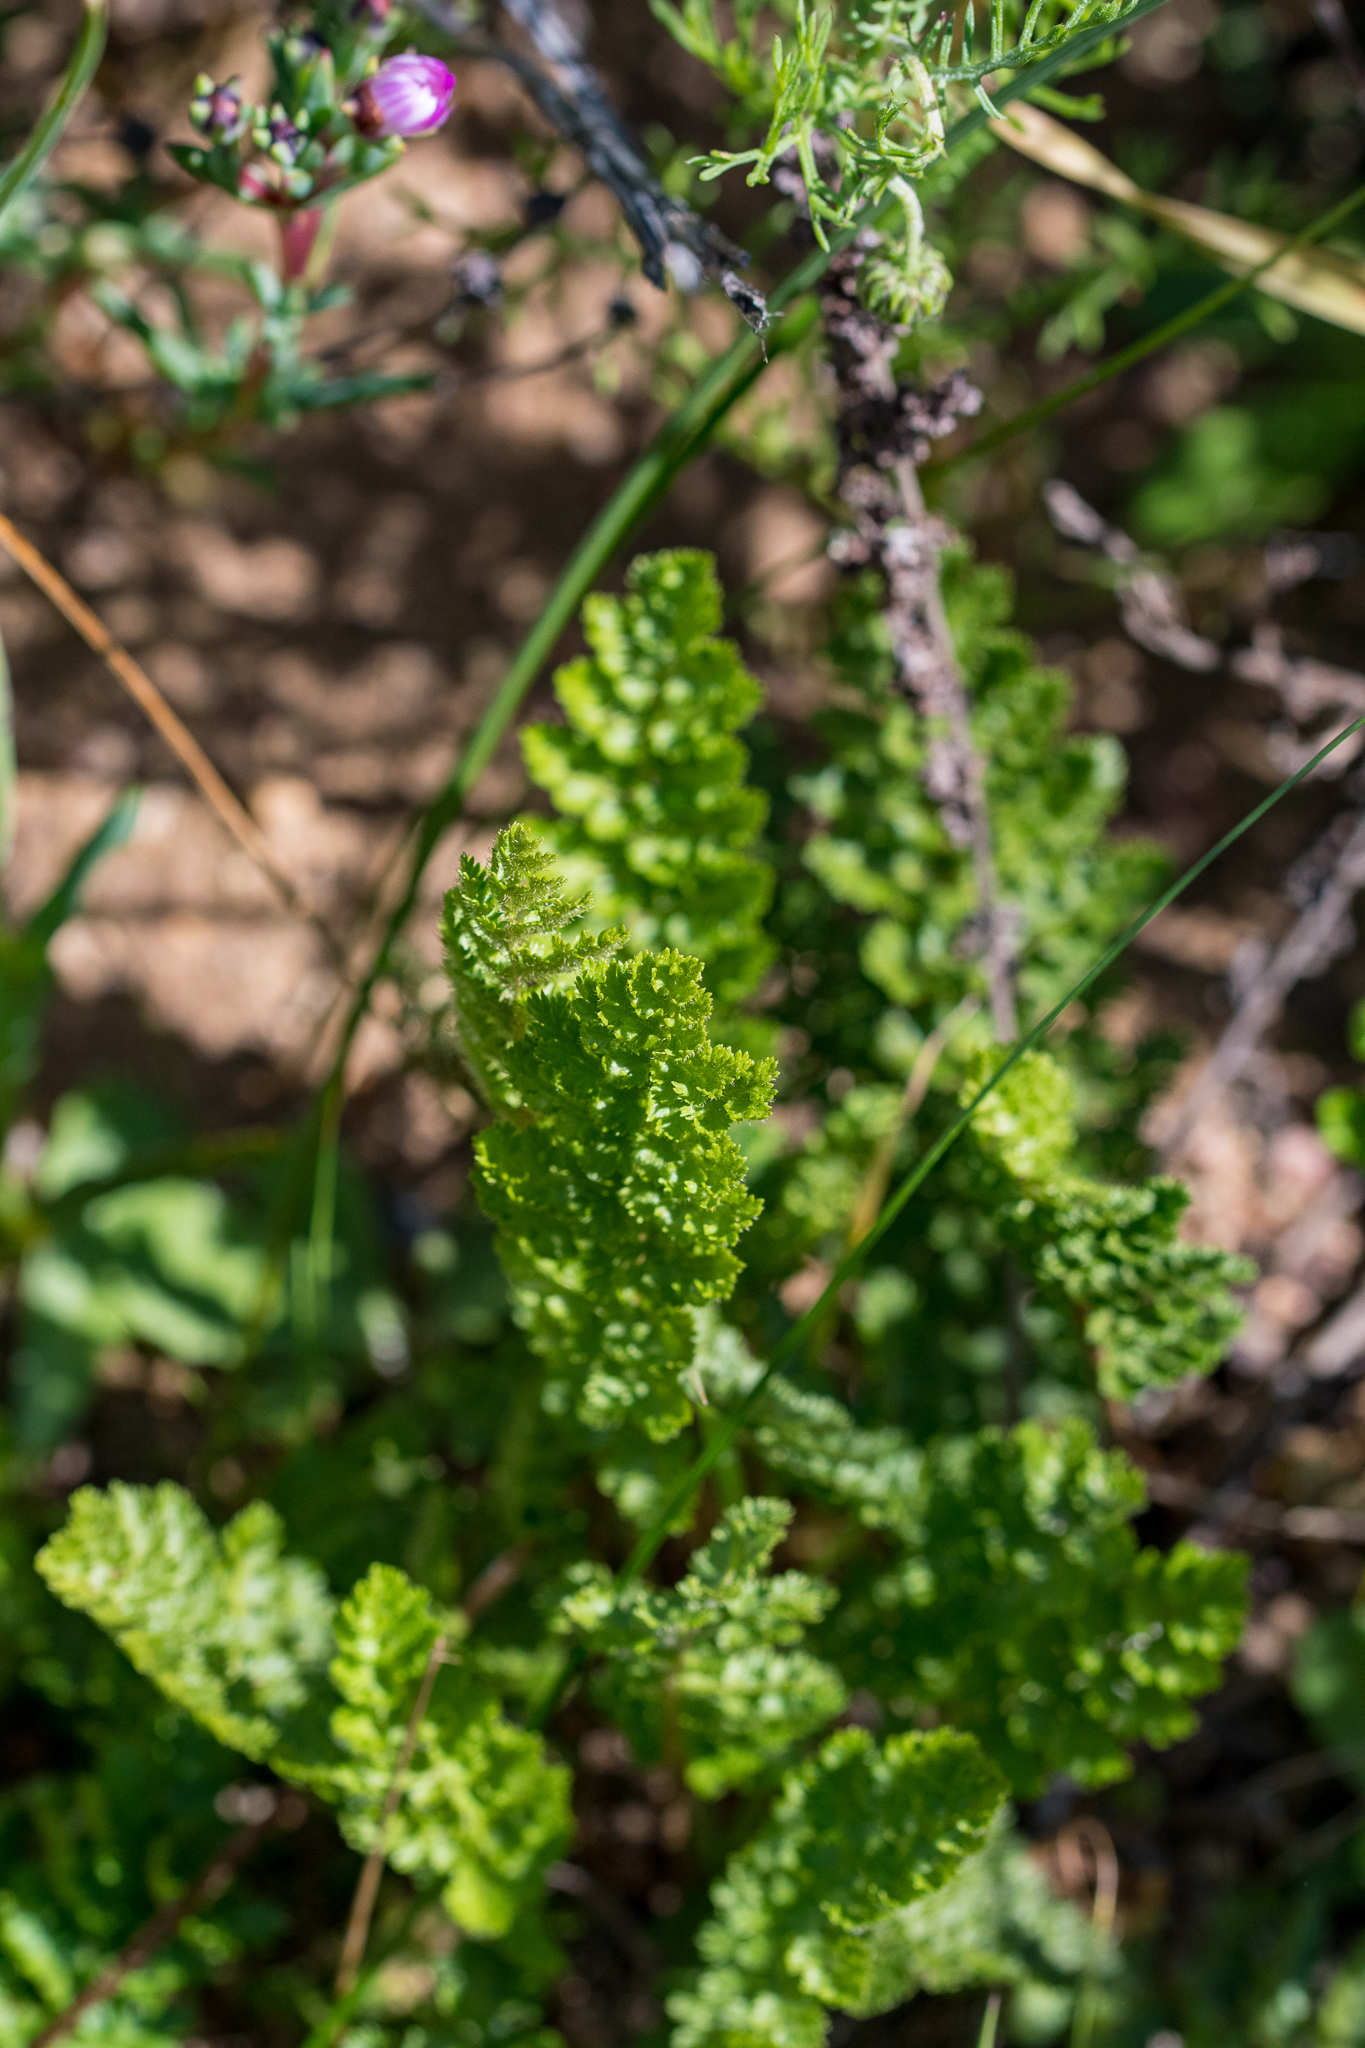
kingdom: Plantae
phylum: Tracheophyta
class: Polypodiopsida
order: Schizaeales
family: Anemiaceae
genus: Anemia
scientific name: Anemia caffrorum
